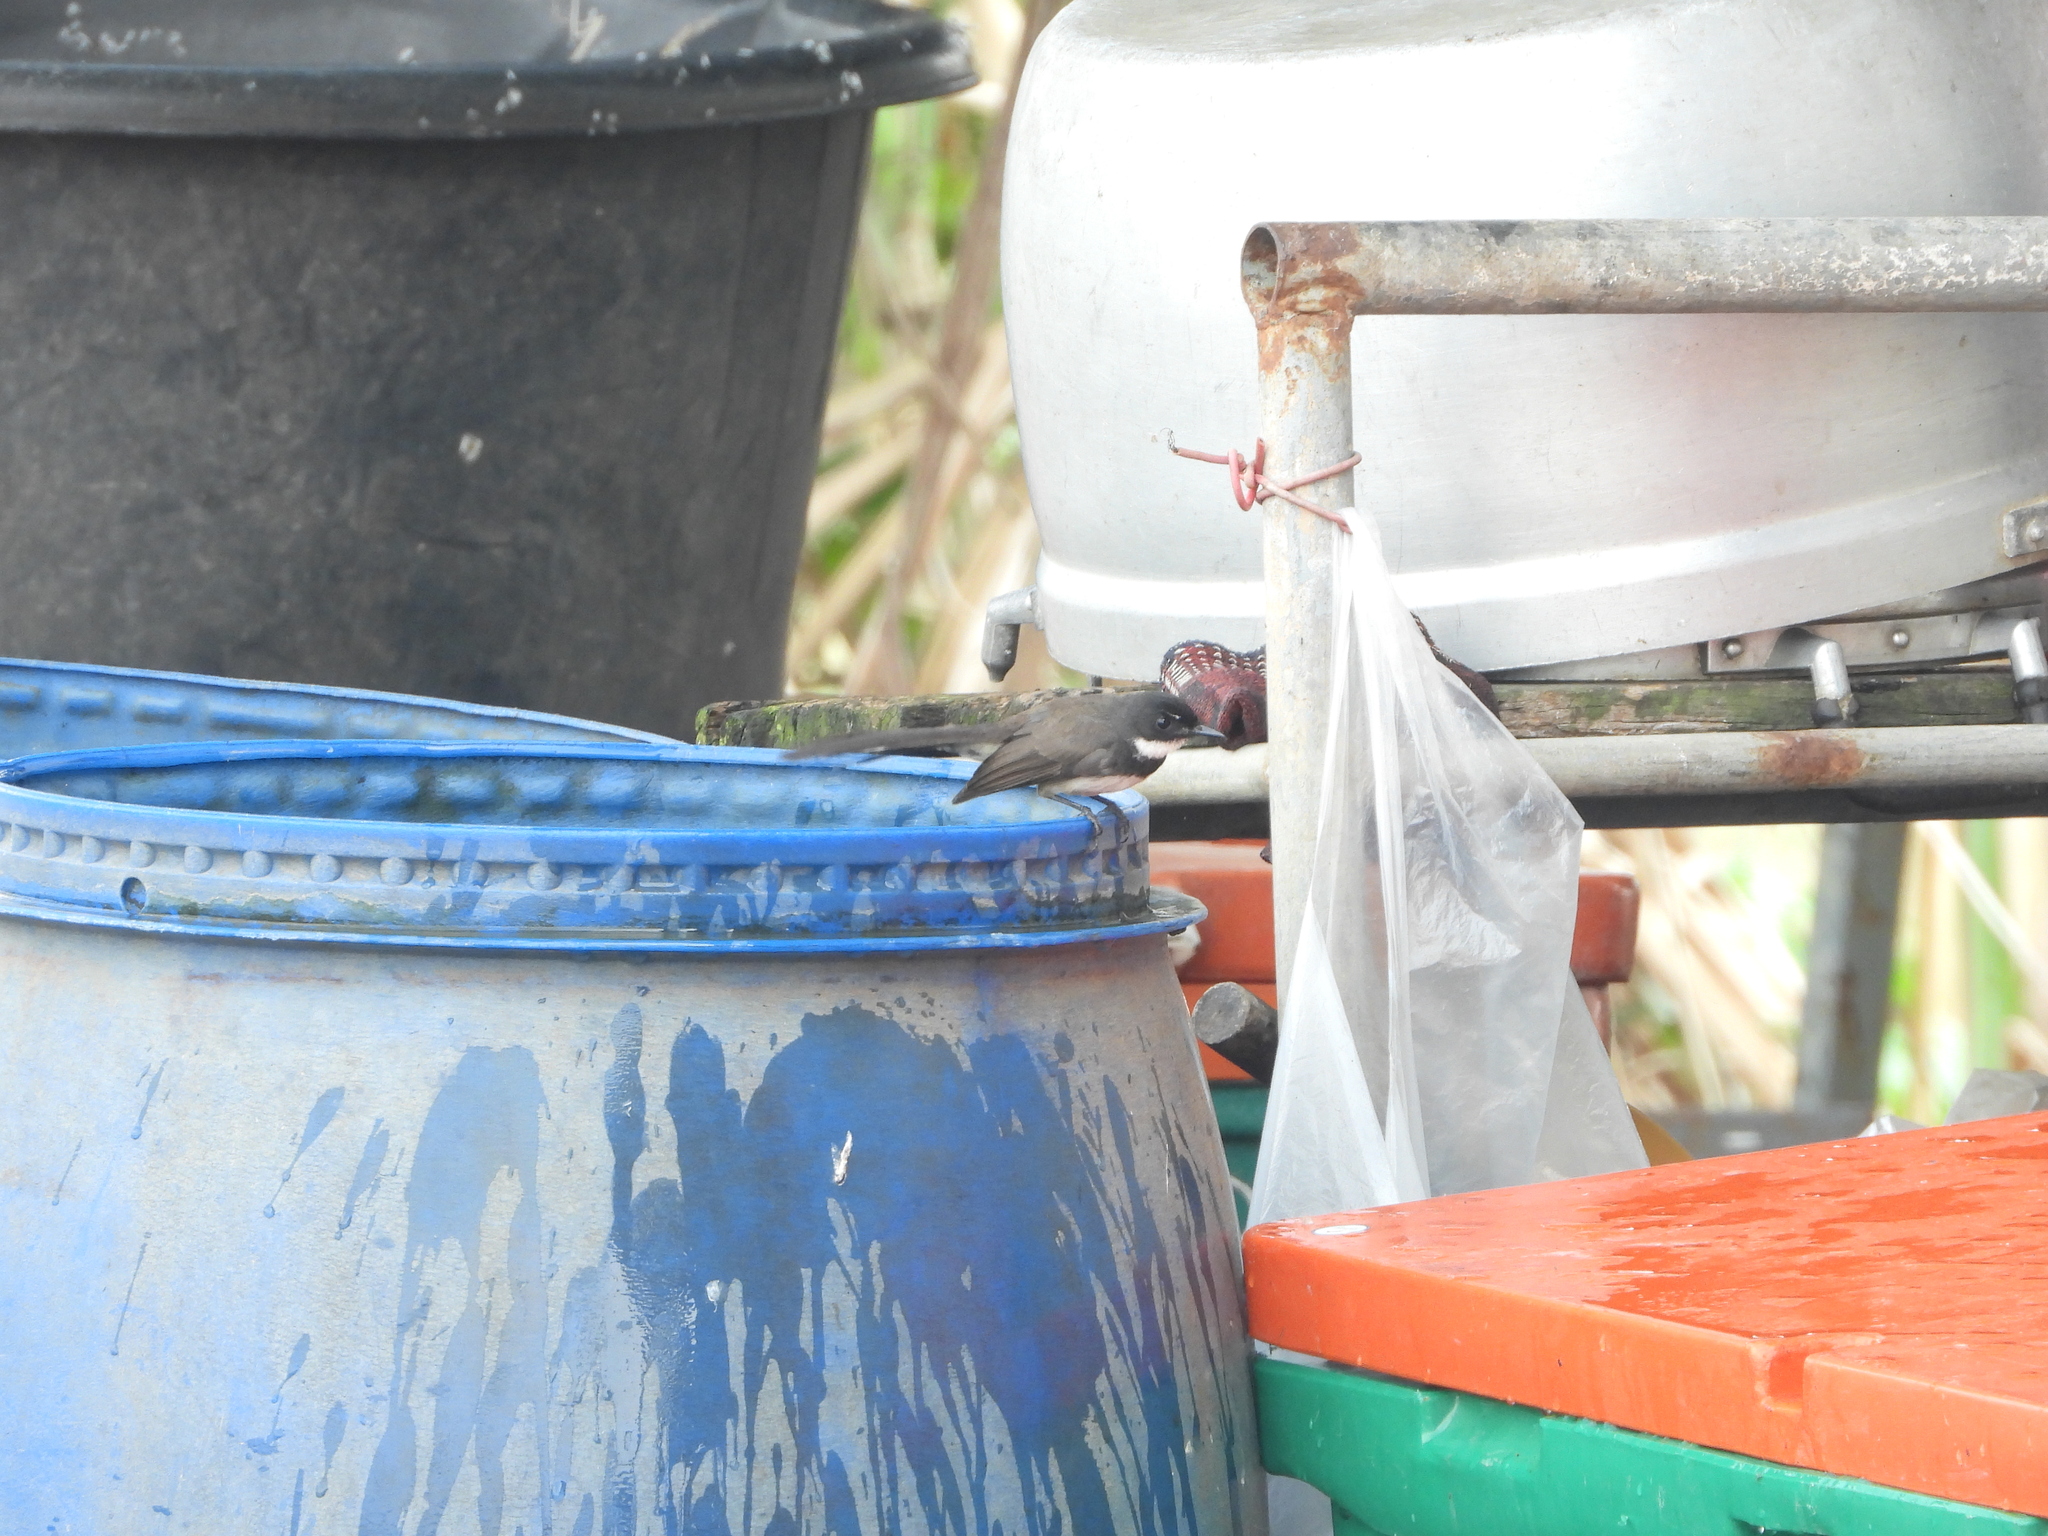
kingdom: Animalia
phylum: Chordata
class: Aves
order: Passeriformes
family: Rhipiduridae
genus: Rhipidura
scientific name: Rhipidura javanica
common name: Pied fantail
